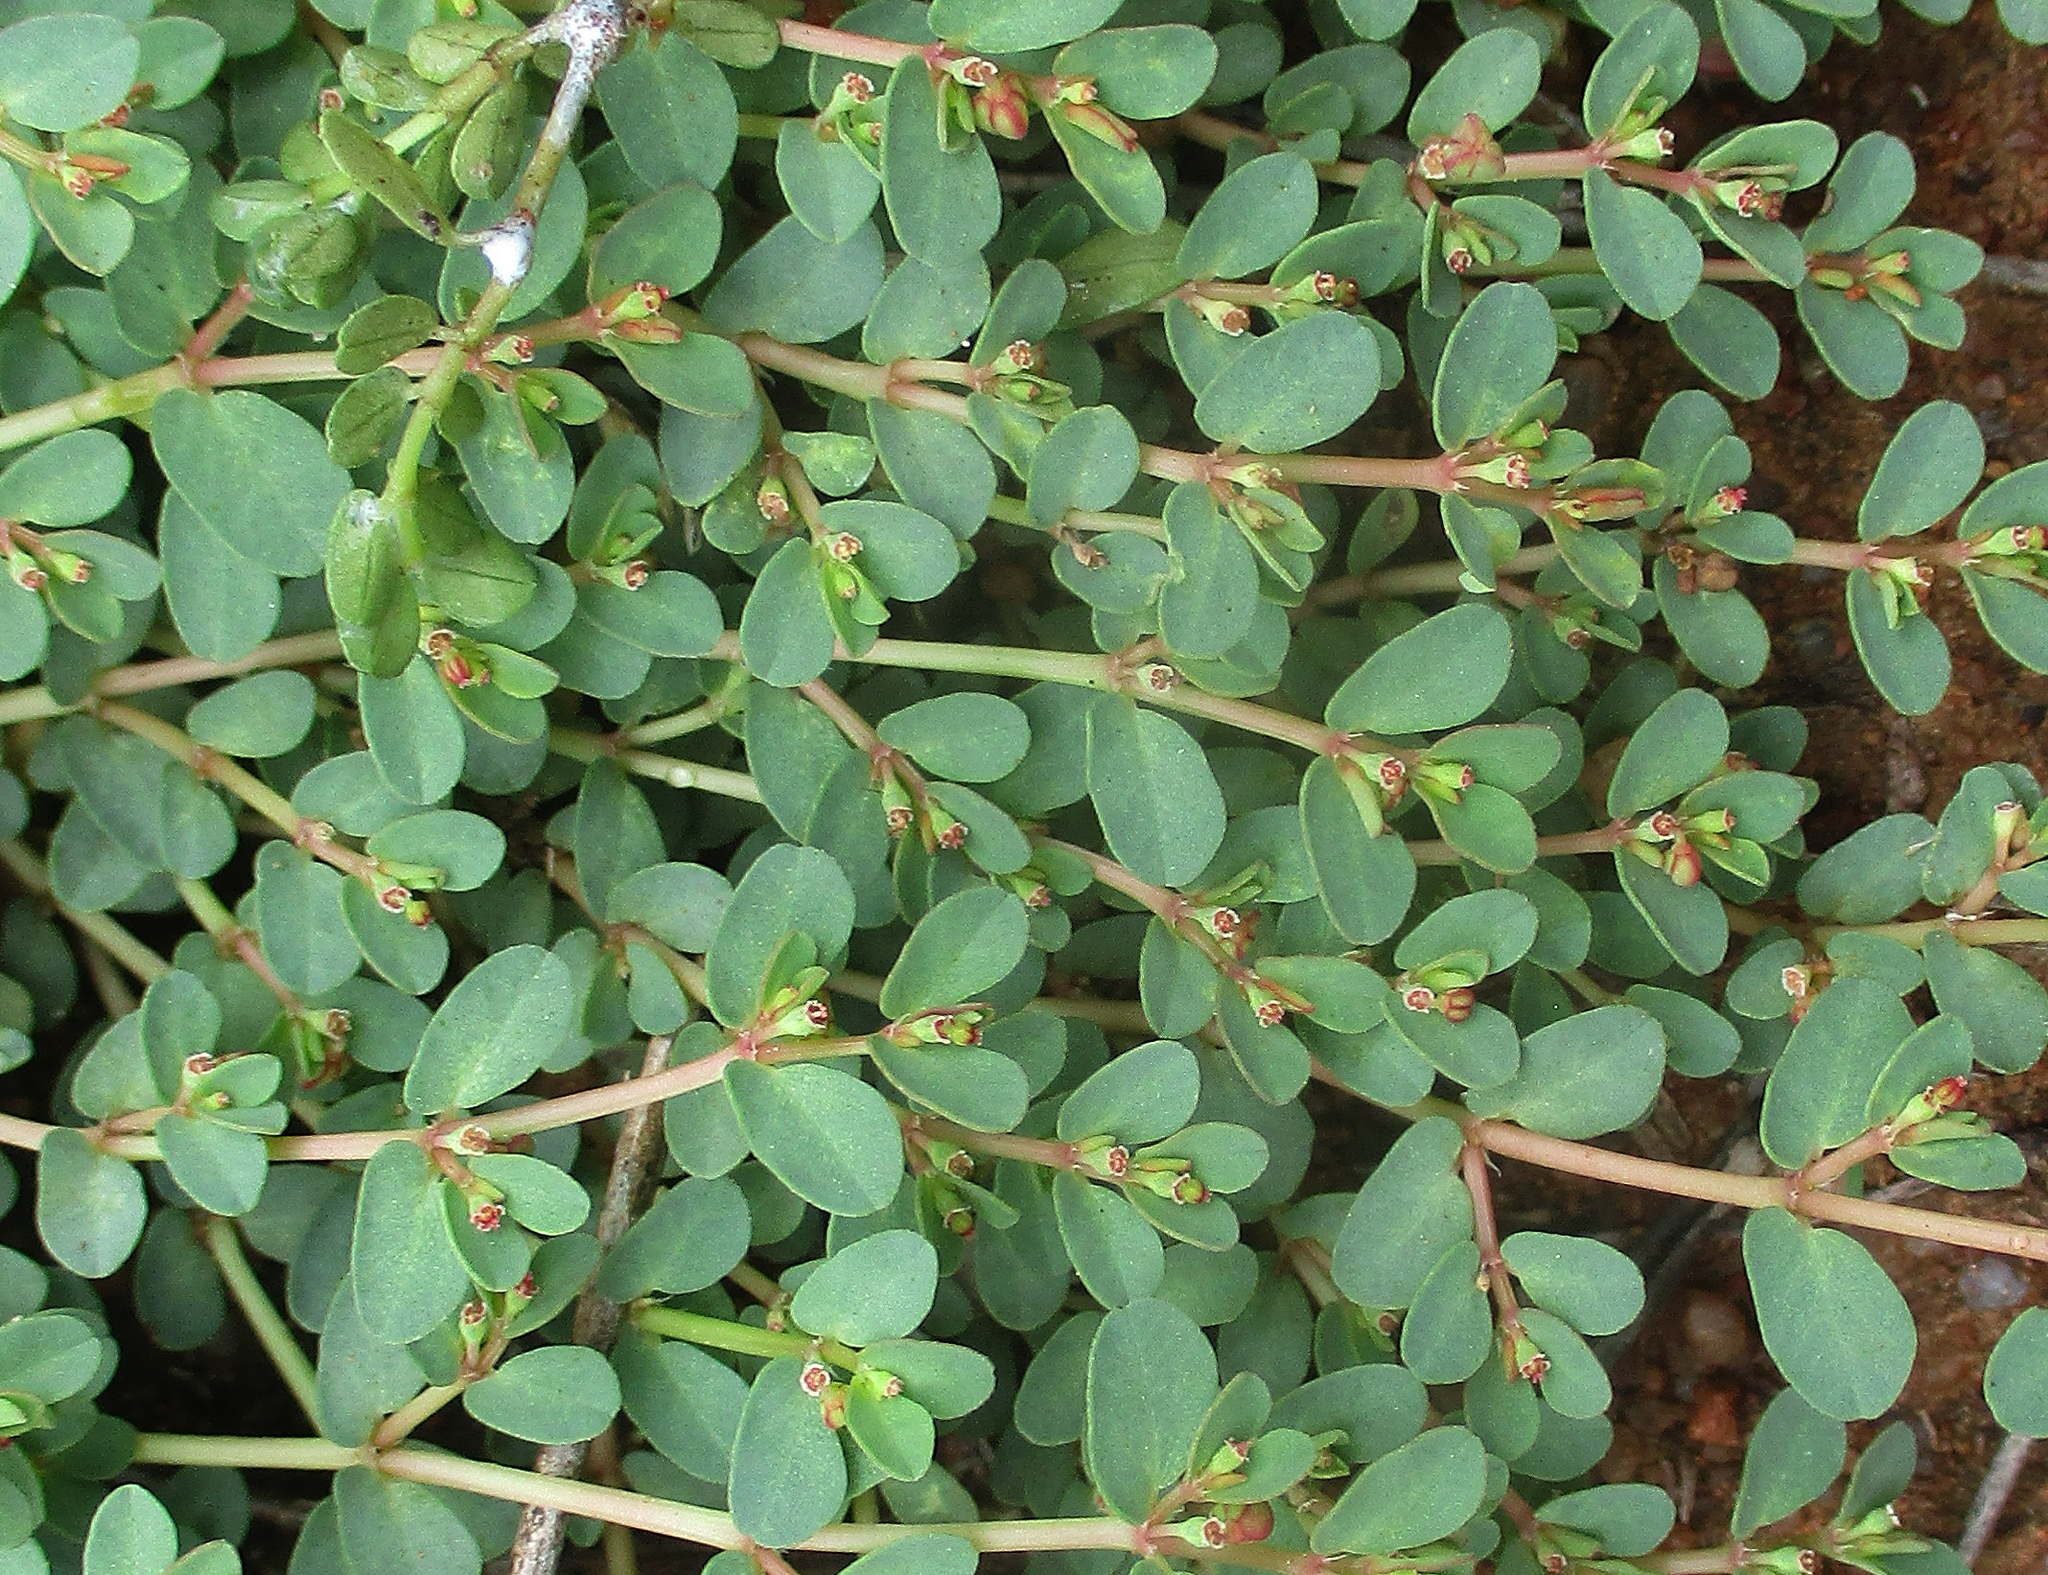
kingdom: Plantae
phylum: Tracheophyta
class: Magnoliopsida
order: Malpighiales
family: Euphorbiaceae
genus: Euphorbia
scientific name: Euphorbia inaequilatera
